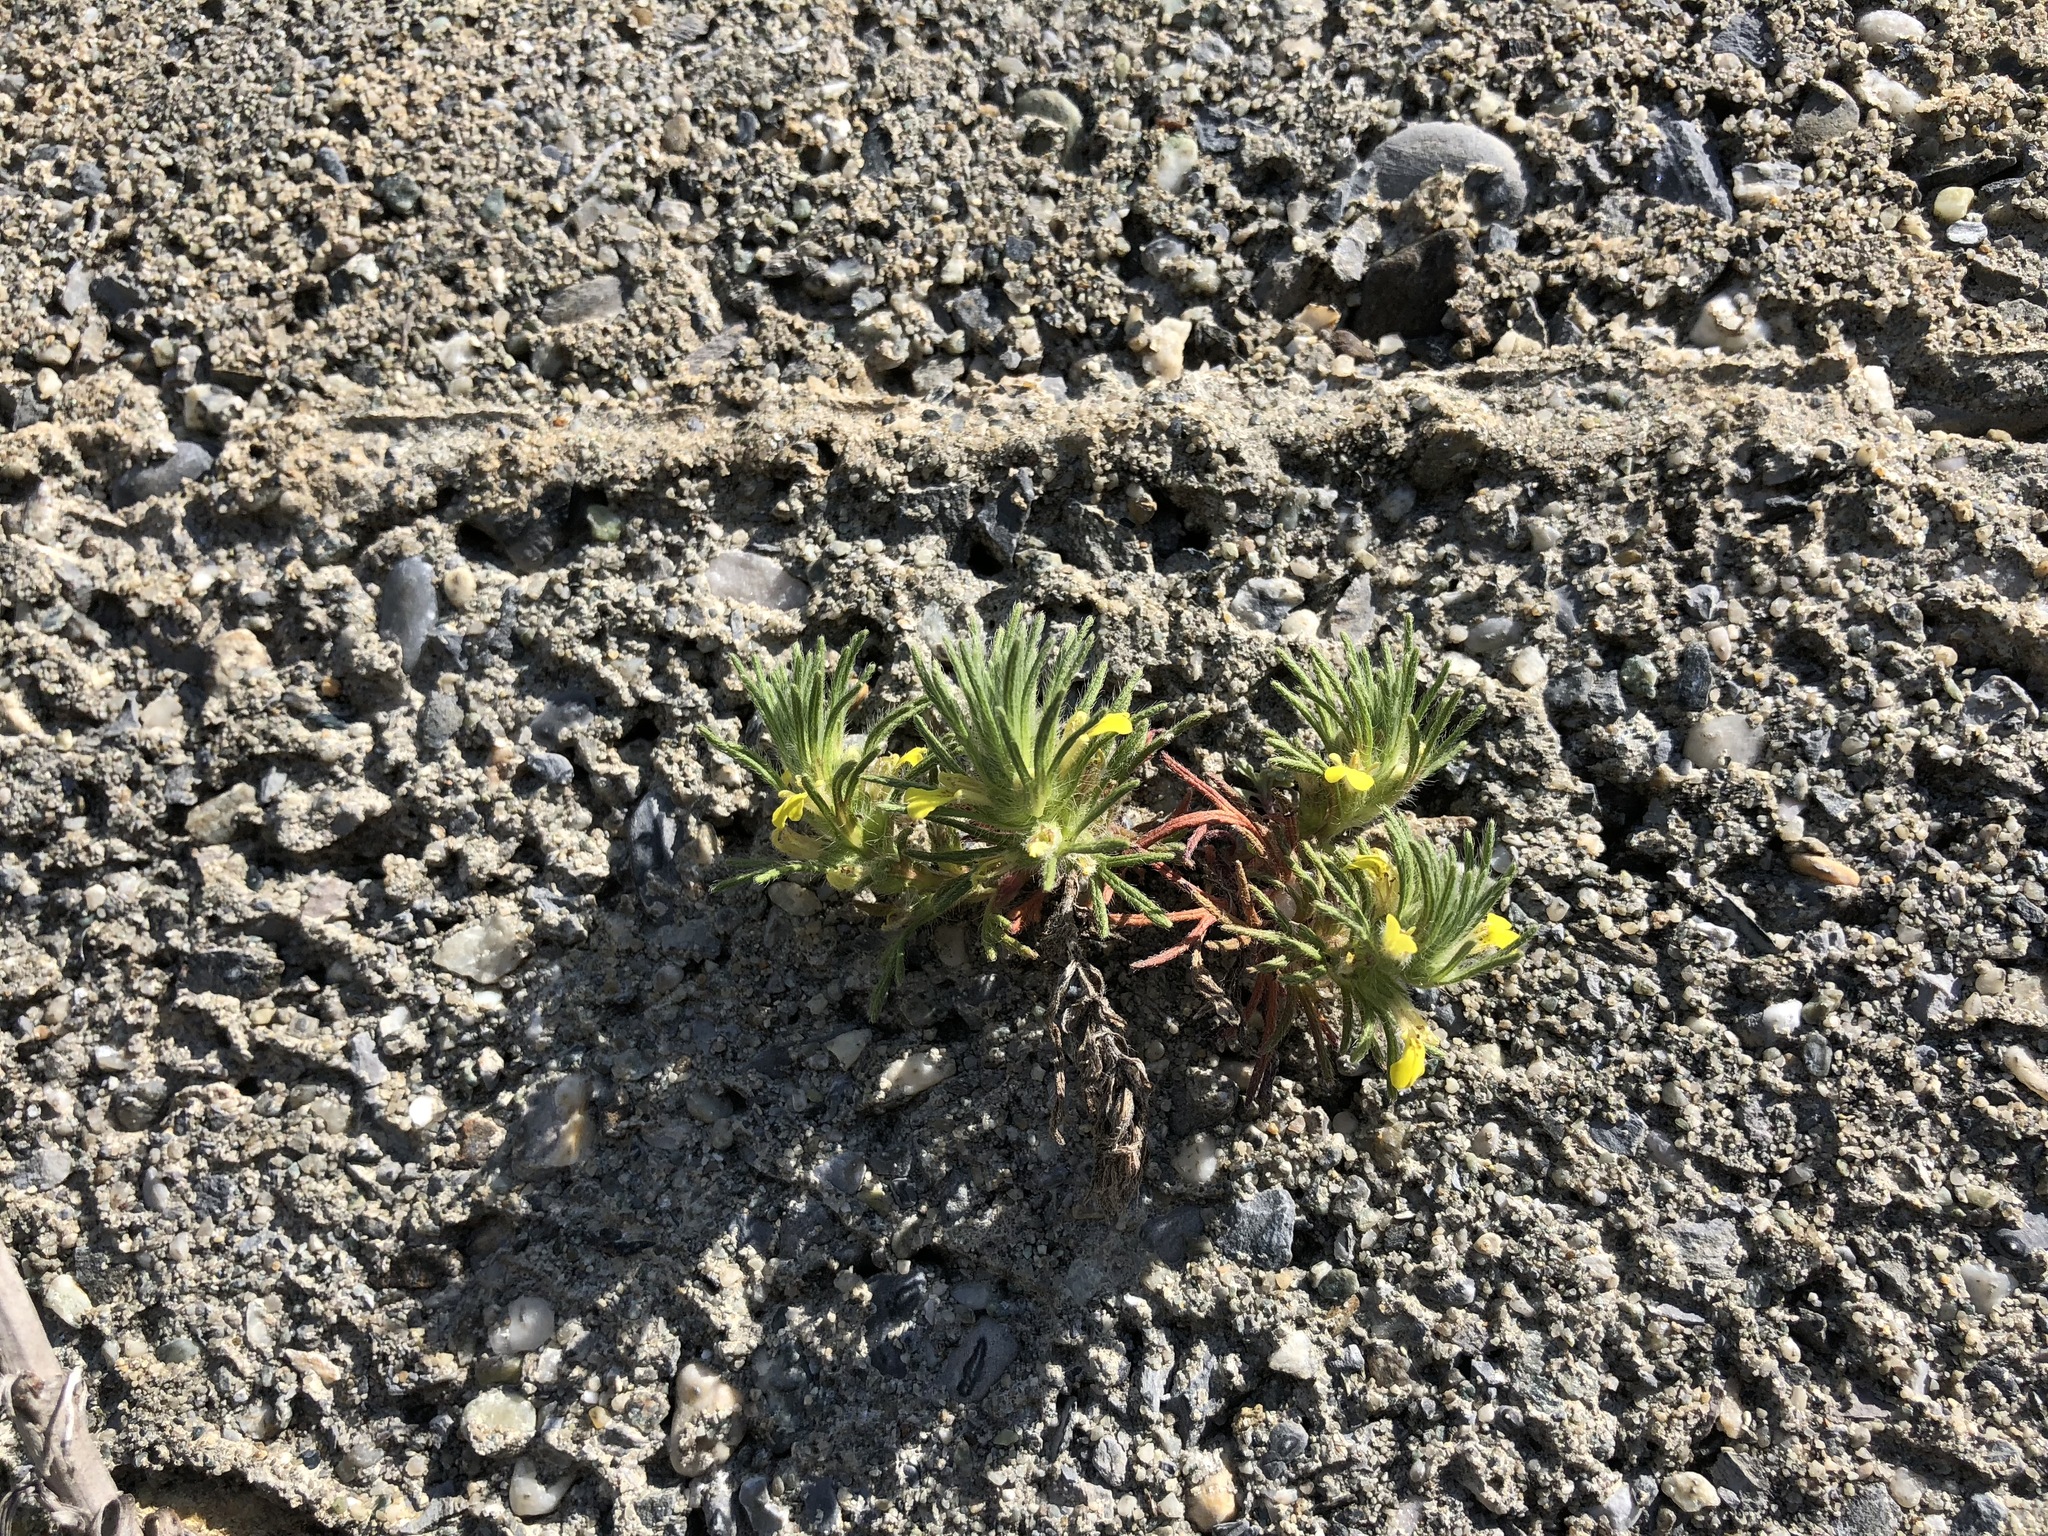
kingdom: Plantae
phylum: Tracheophyta
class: Magnoliopsida
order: Lamiales
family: Lamiaceae
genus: Ajuga
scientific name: Ajuga chamaepitys
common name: Ground-pine
